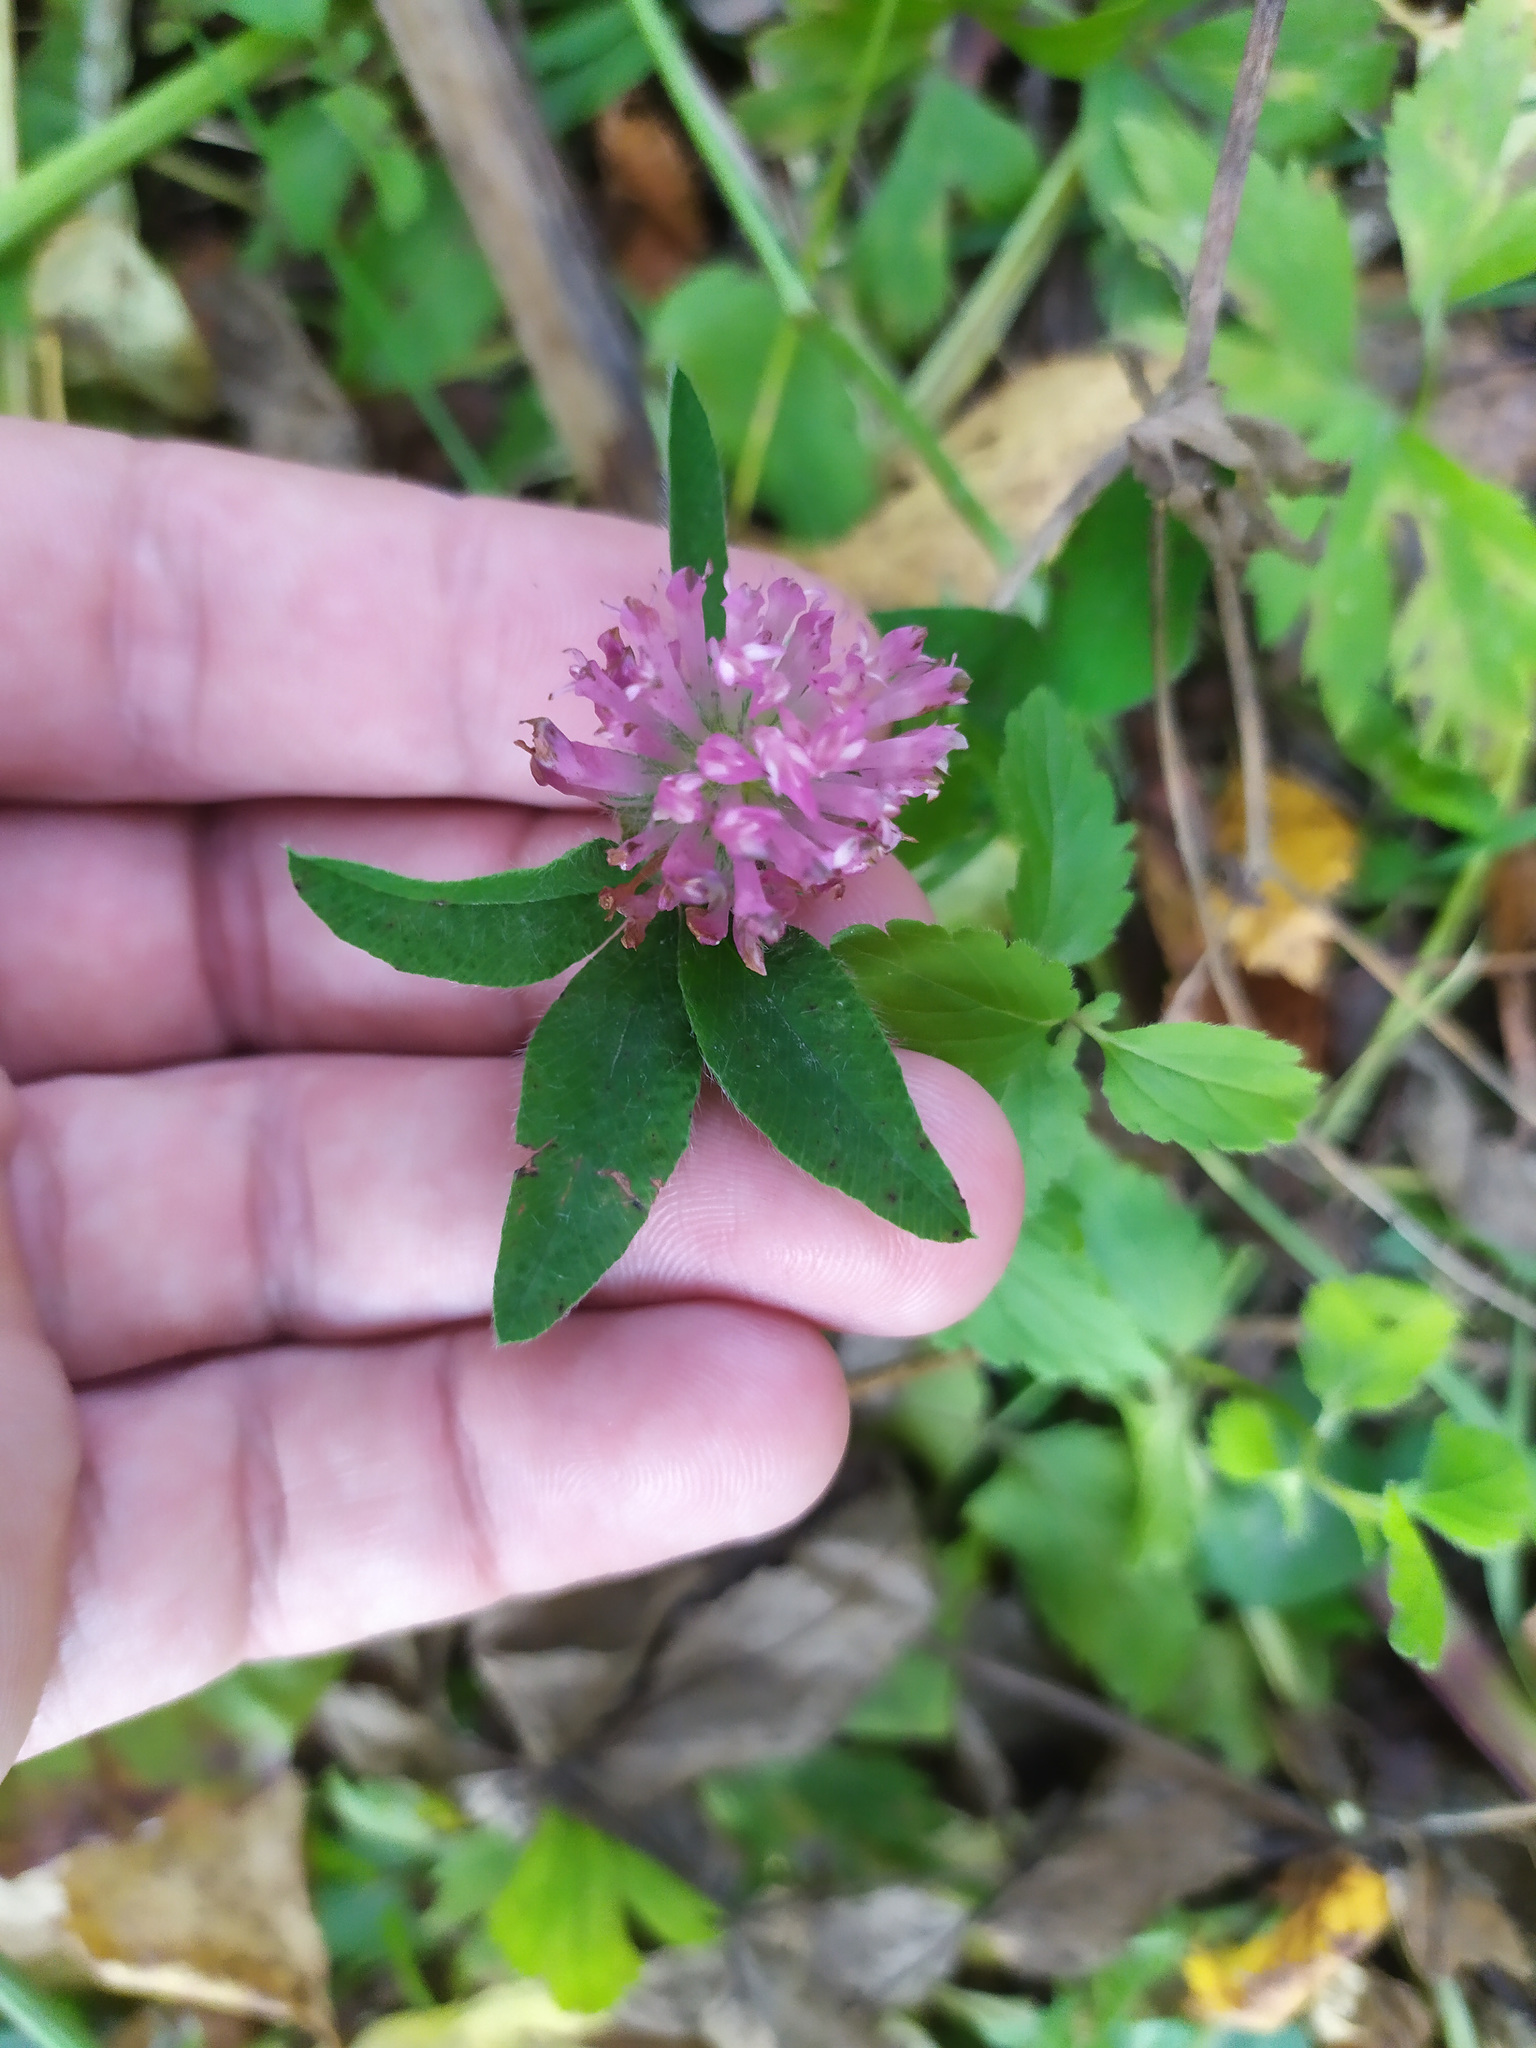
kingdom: Plantae
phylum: Tracheophyta
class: Magnoliopsida
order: Fabales
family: Fabaceae
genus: Trifolium
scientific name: Trifolium pratense
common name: Red clover
